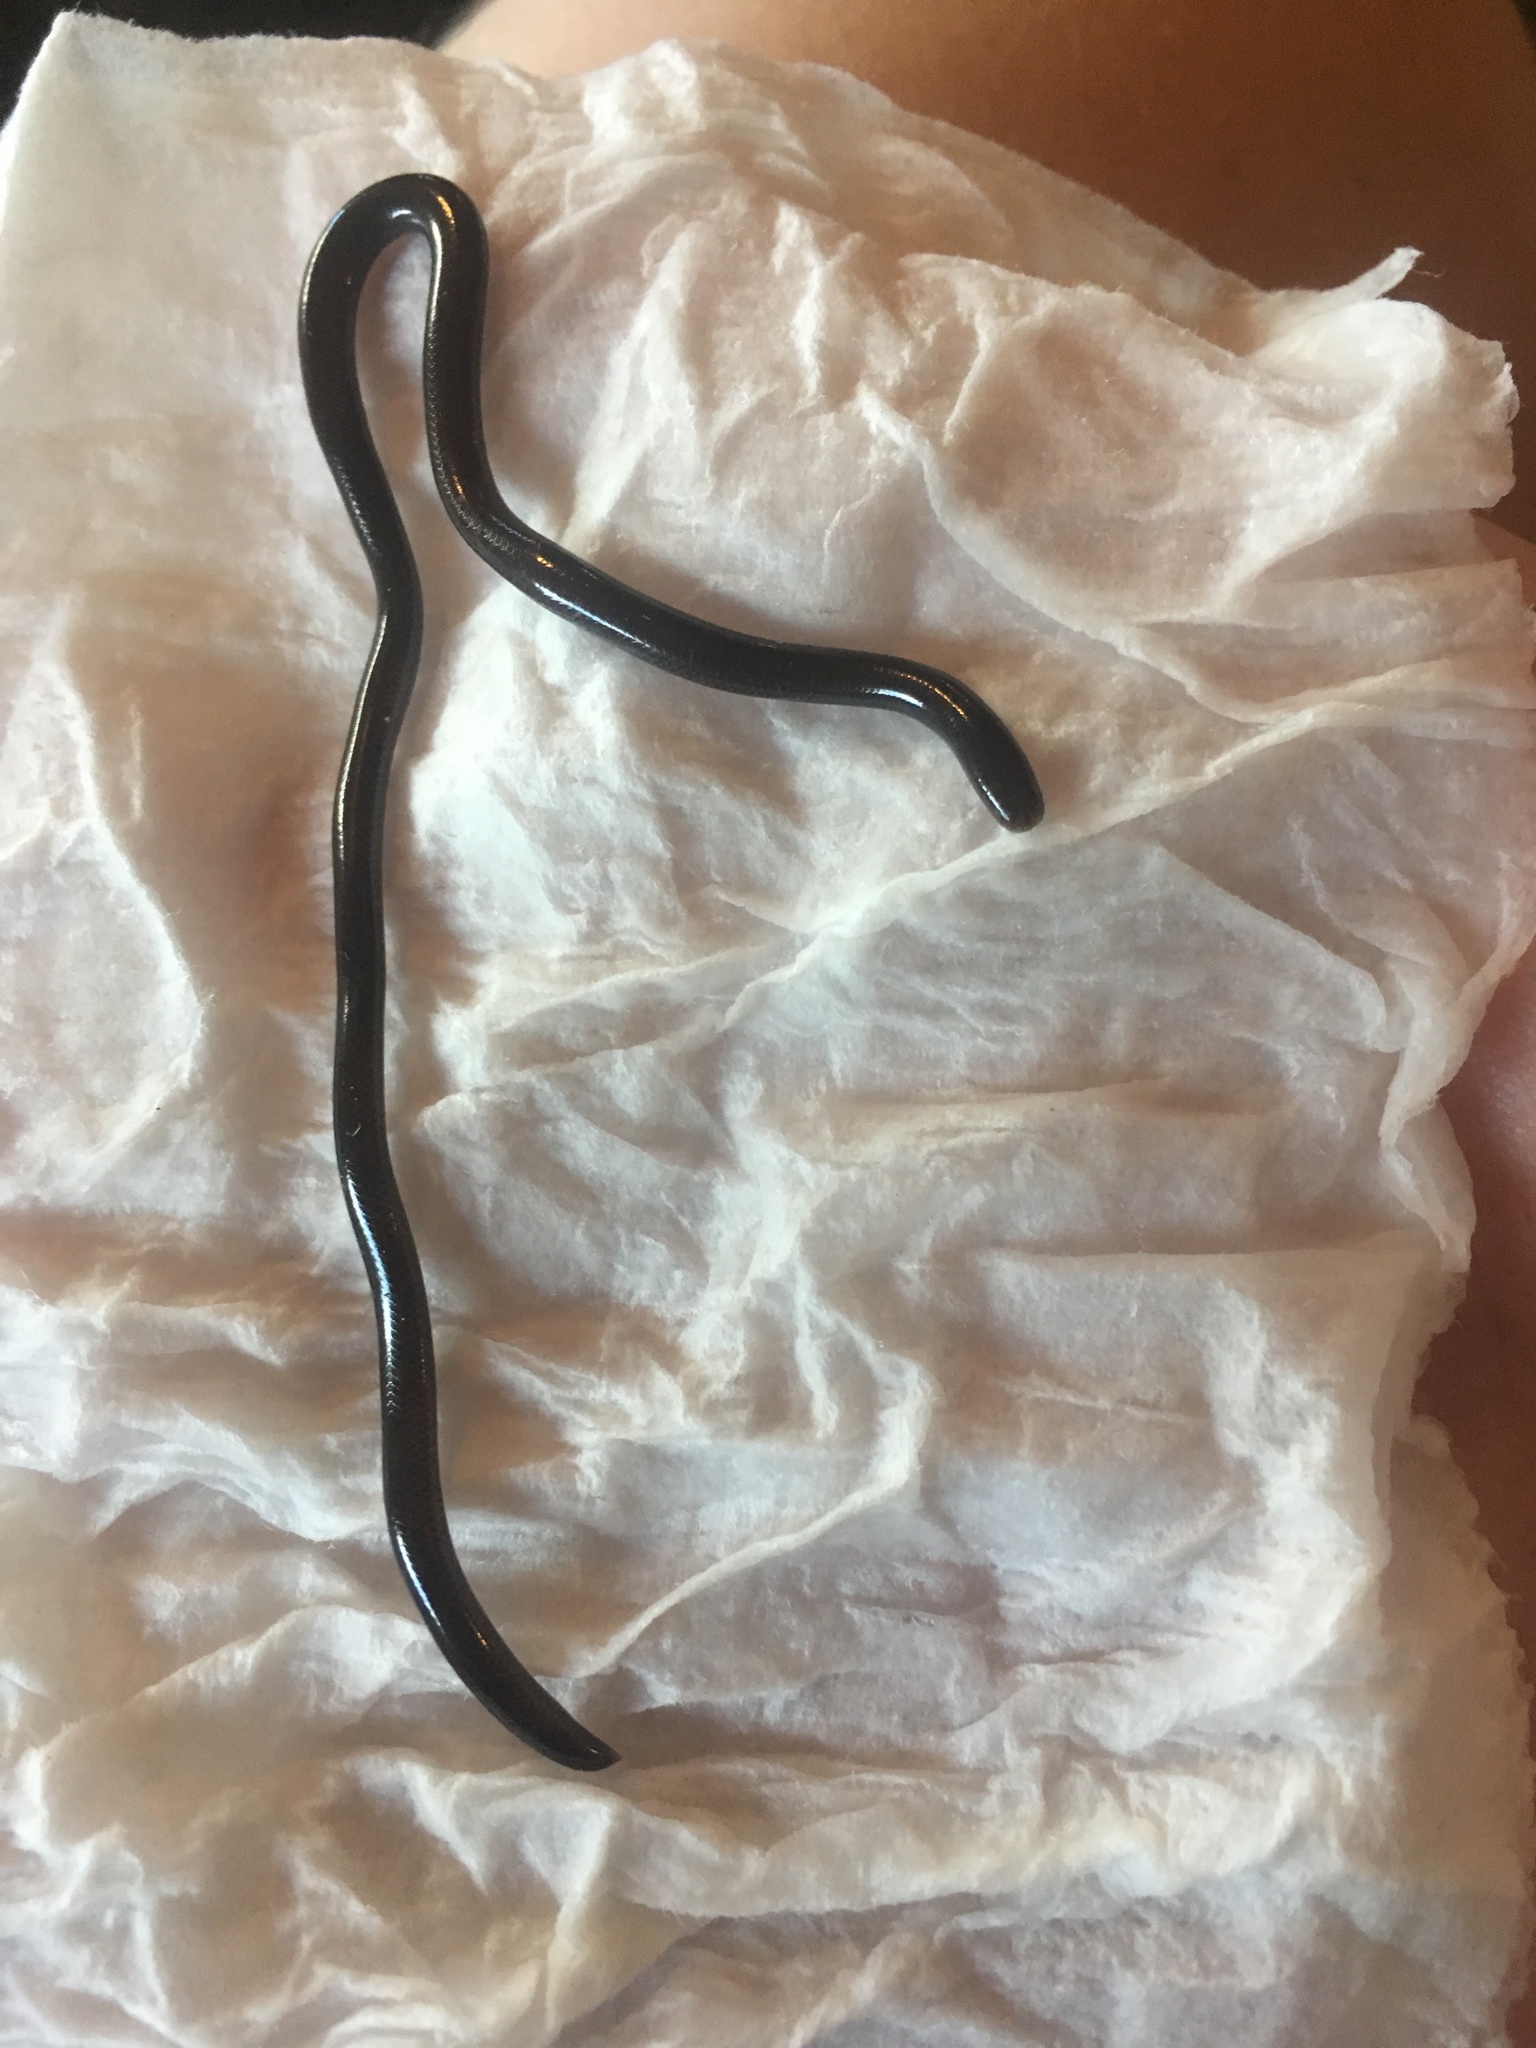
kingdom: Animalia
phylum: Chordata
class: Squamata
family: Typhlopidae
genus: Indotyphlops
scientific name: Indotyphlops braminus
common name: Brahminy blindsnake
